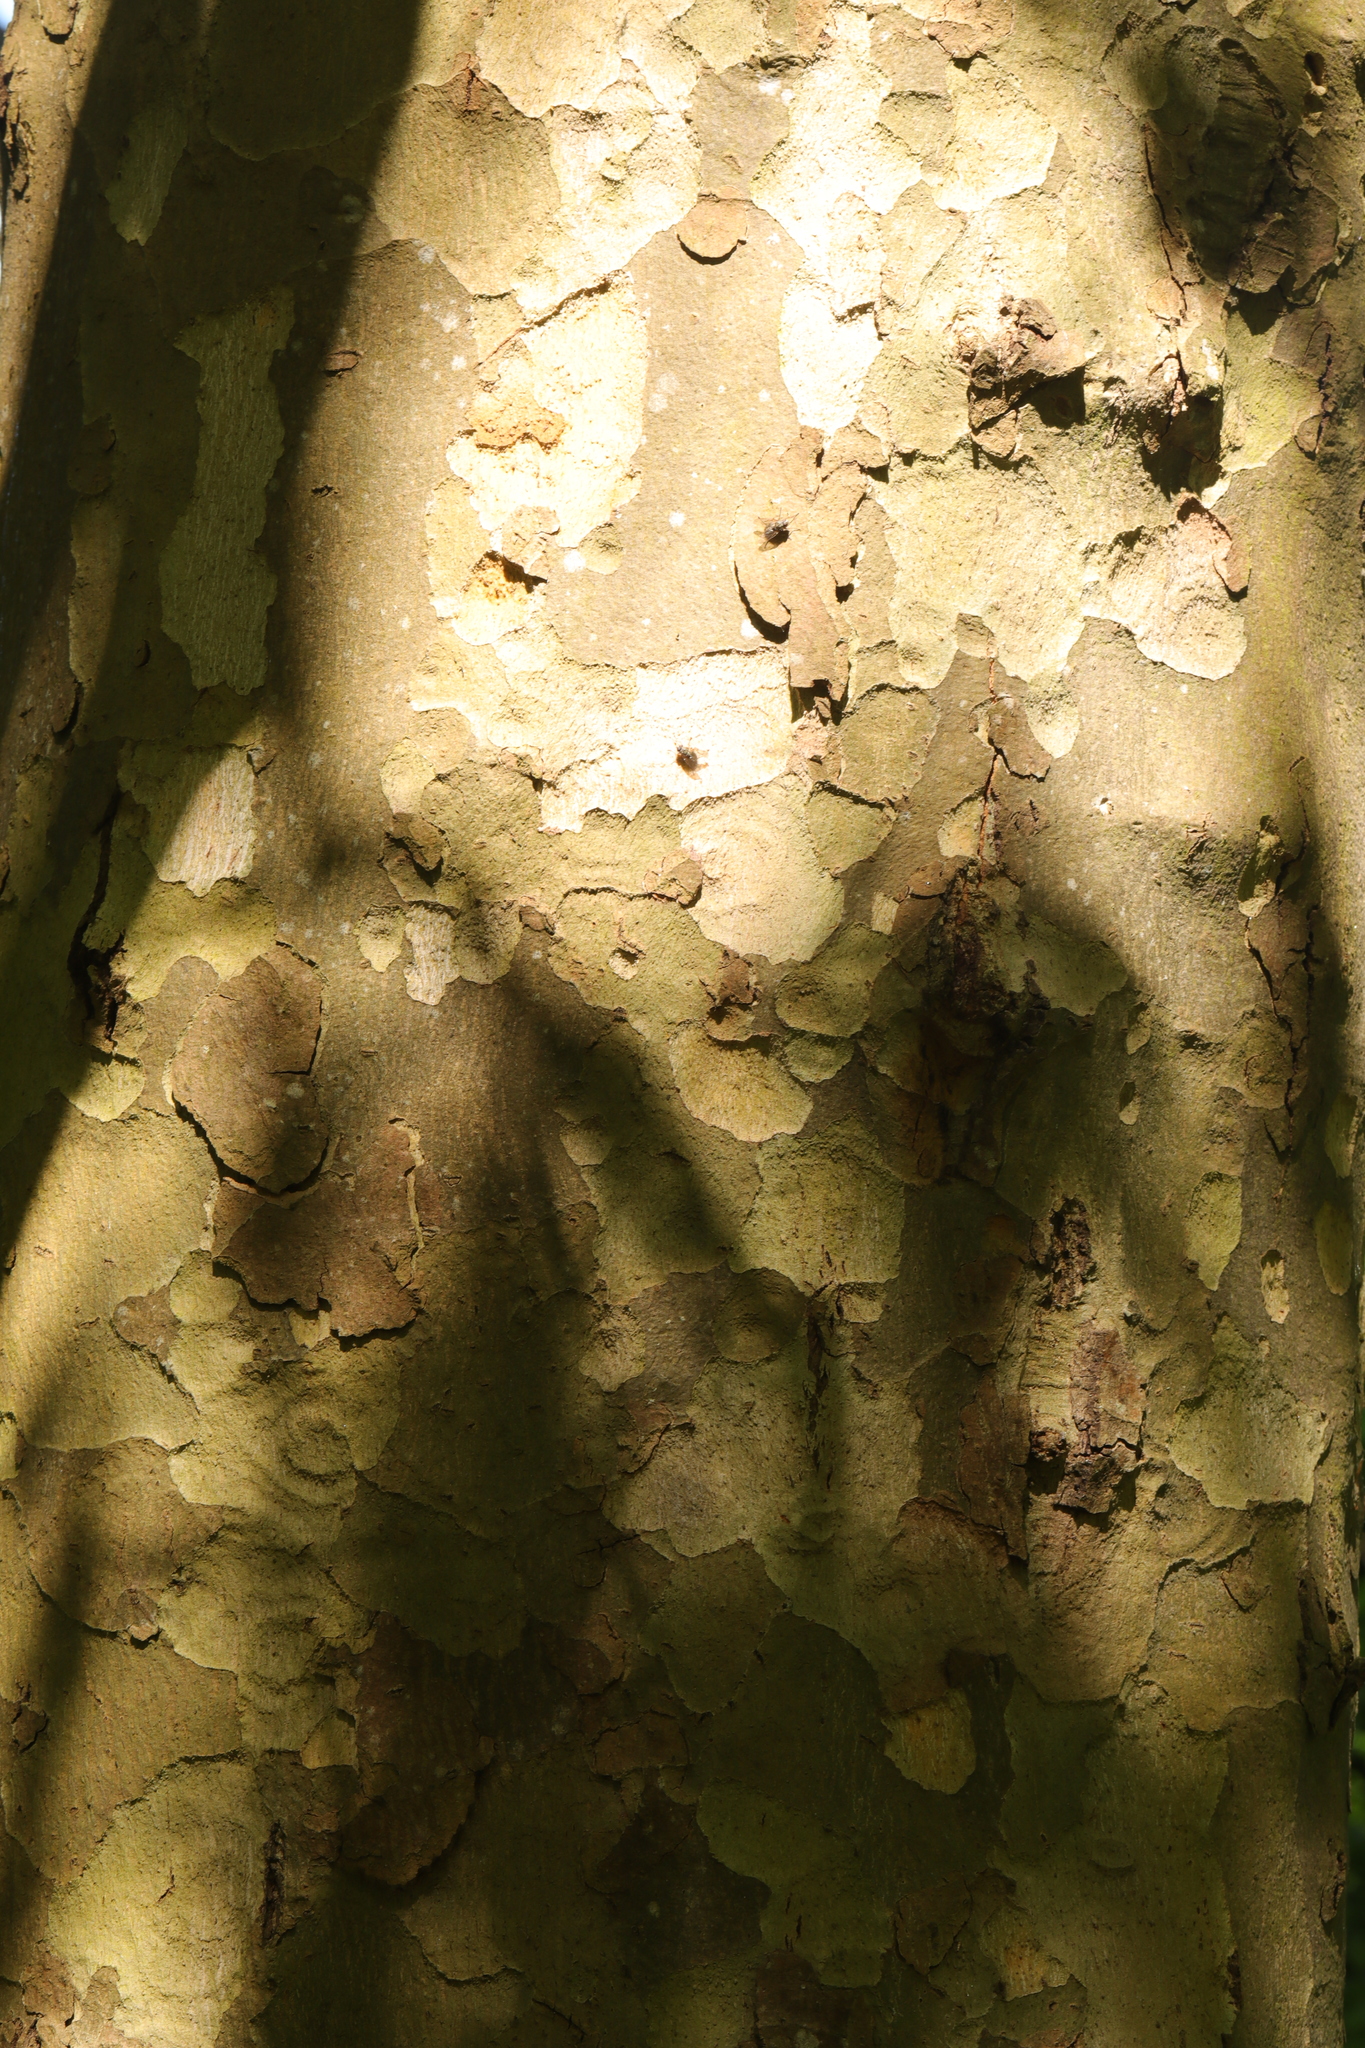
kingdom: Plantae
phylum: Tracheophyta
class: Magnoliopsida
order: Proteales
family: Platanaceae
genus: Platanus
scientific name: Platanus hispanica
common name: London plane
